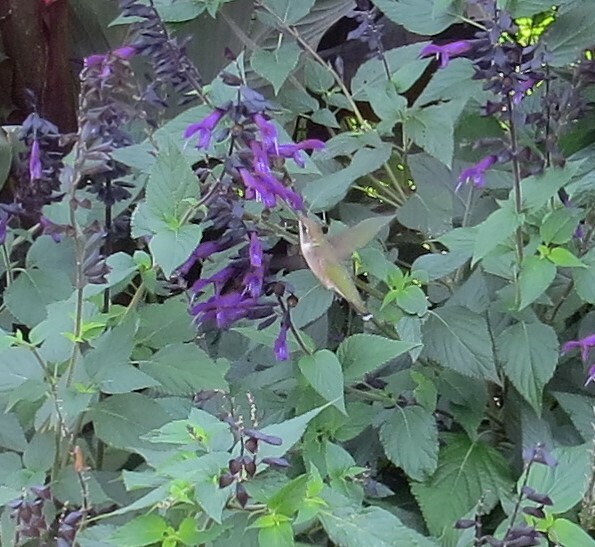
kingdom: Animalia
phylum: Chordata
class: Aves
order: Apodiformes
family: Trochilidae
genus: Archilochus
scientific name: Archilochus colubris
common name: Ruby-throated hummingbird
